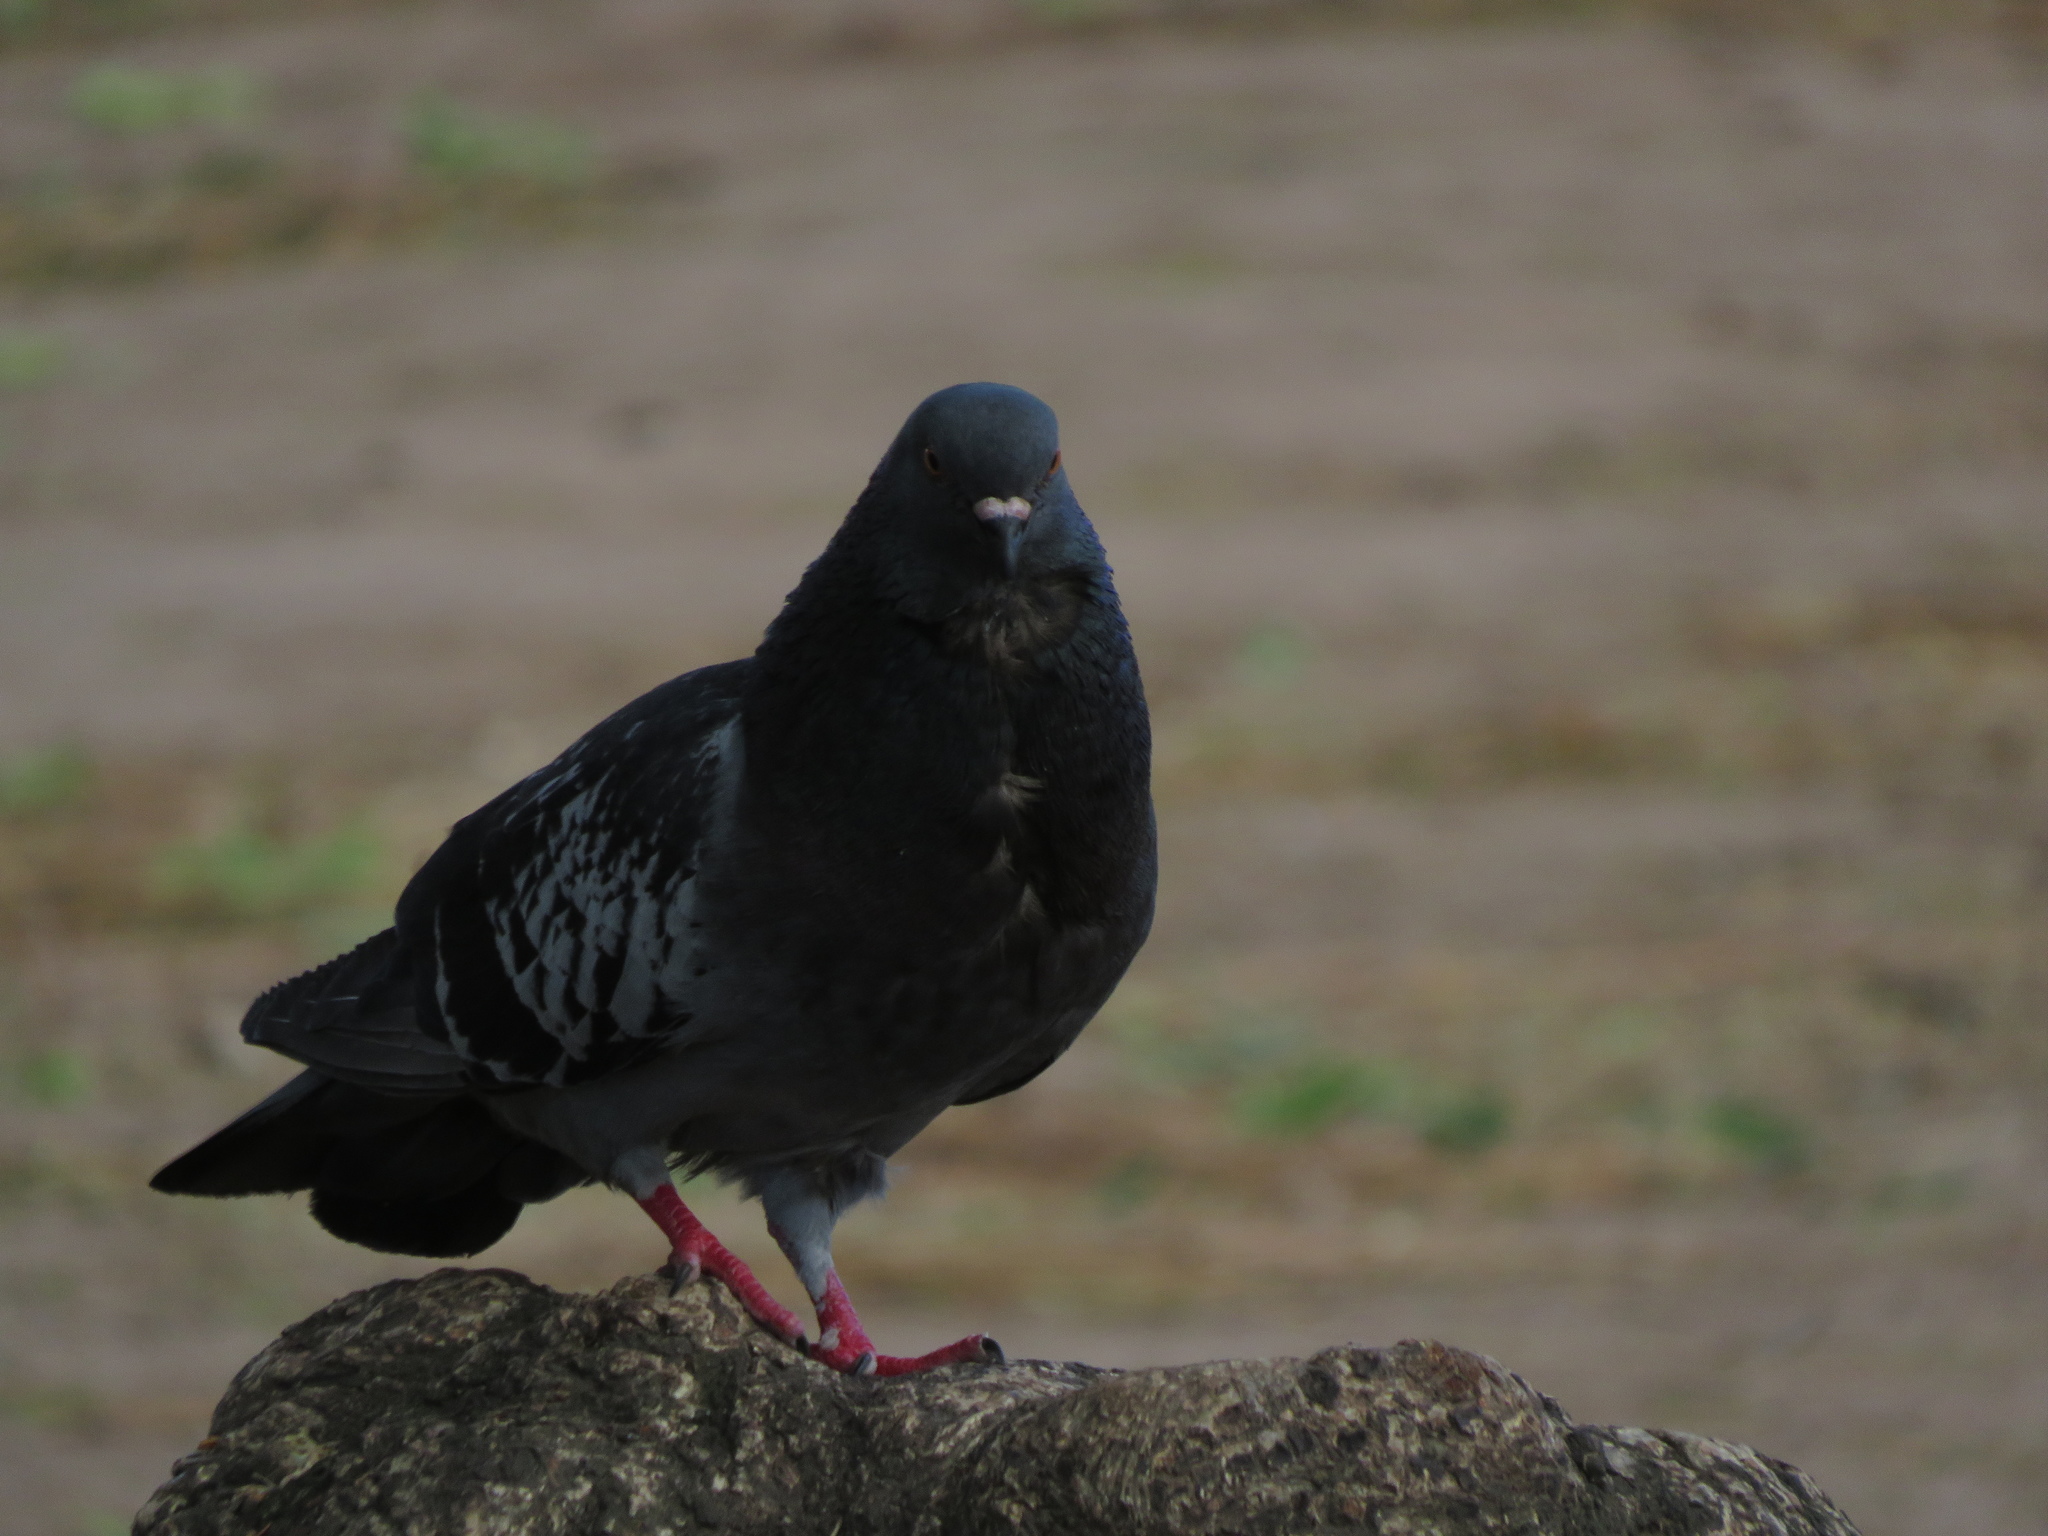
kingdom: Animalia
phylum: Chordata
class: Aves
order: Columbiformes
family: Columbidae
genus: Columba
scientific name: Columba livia
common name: Rock pigeon
